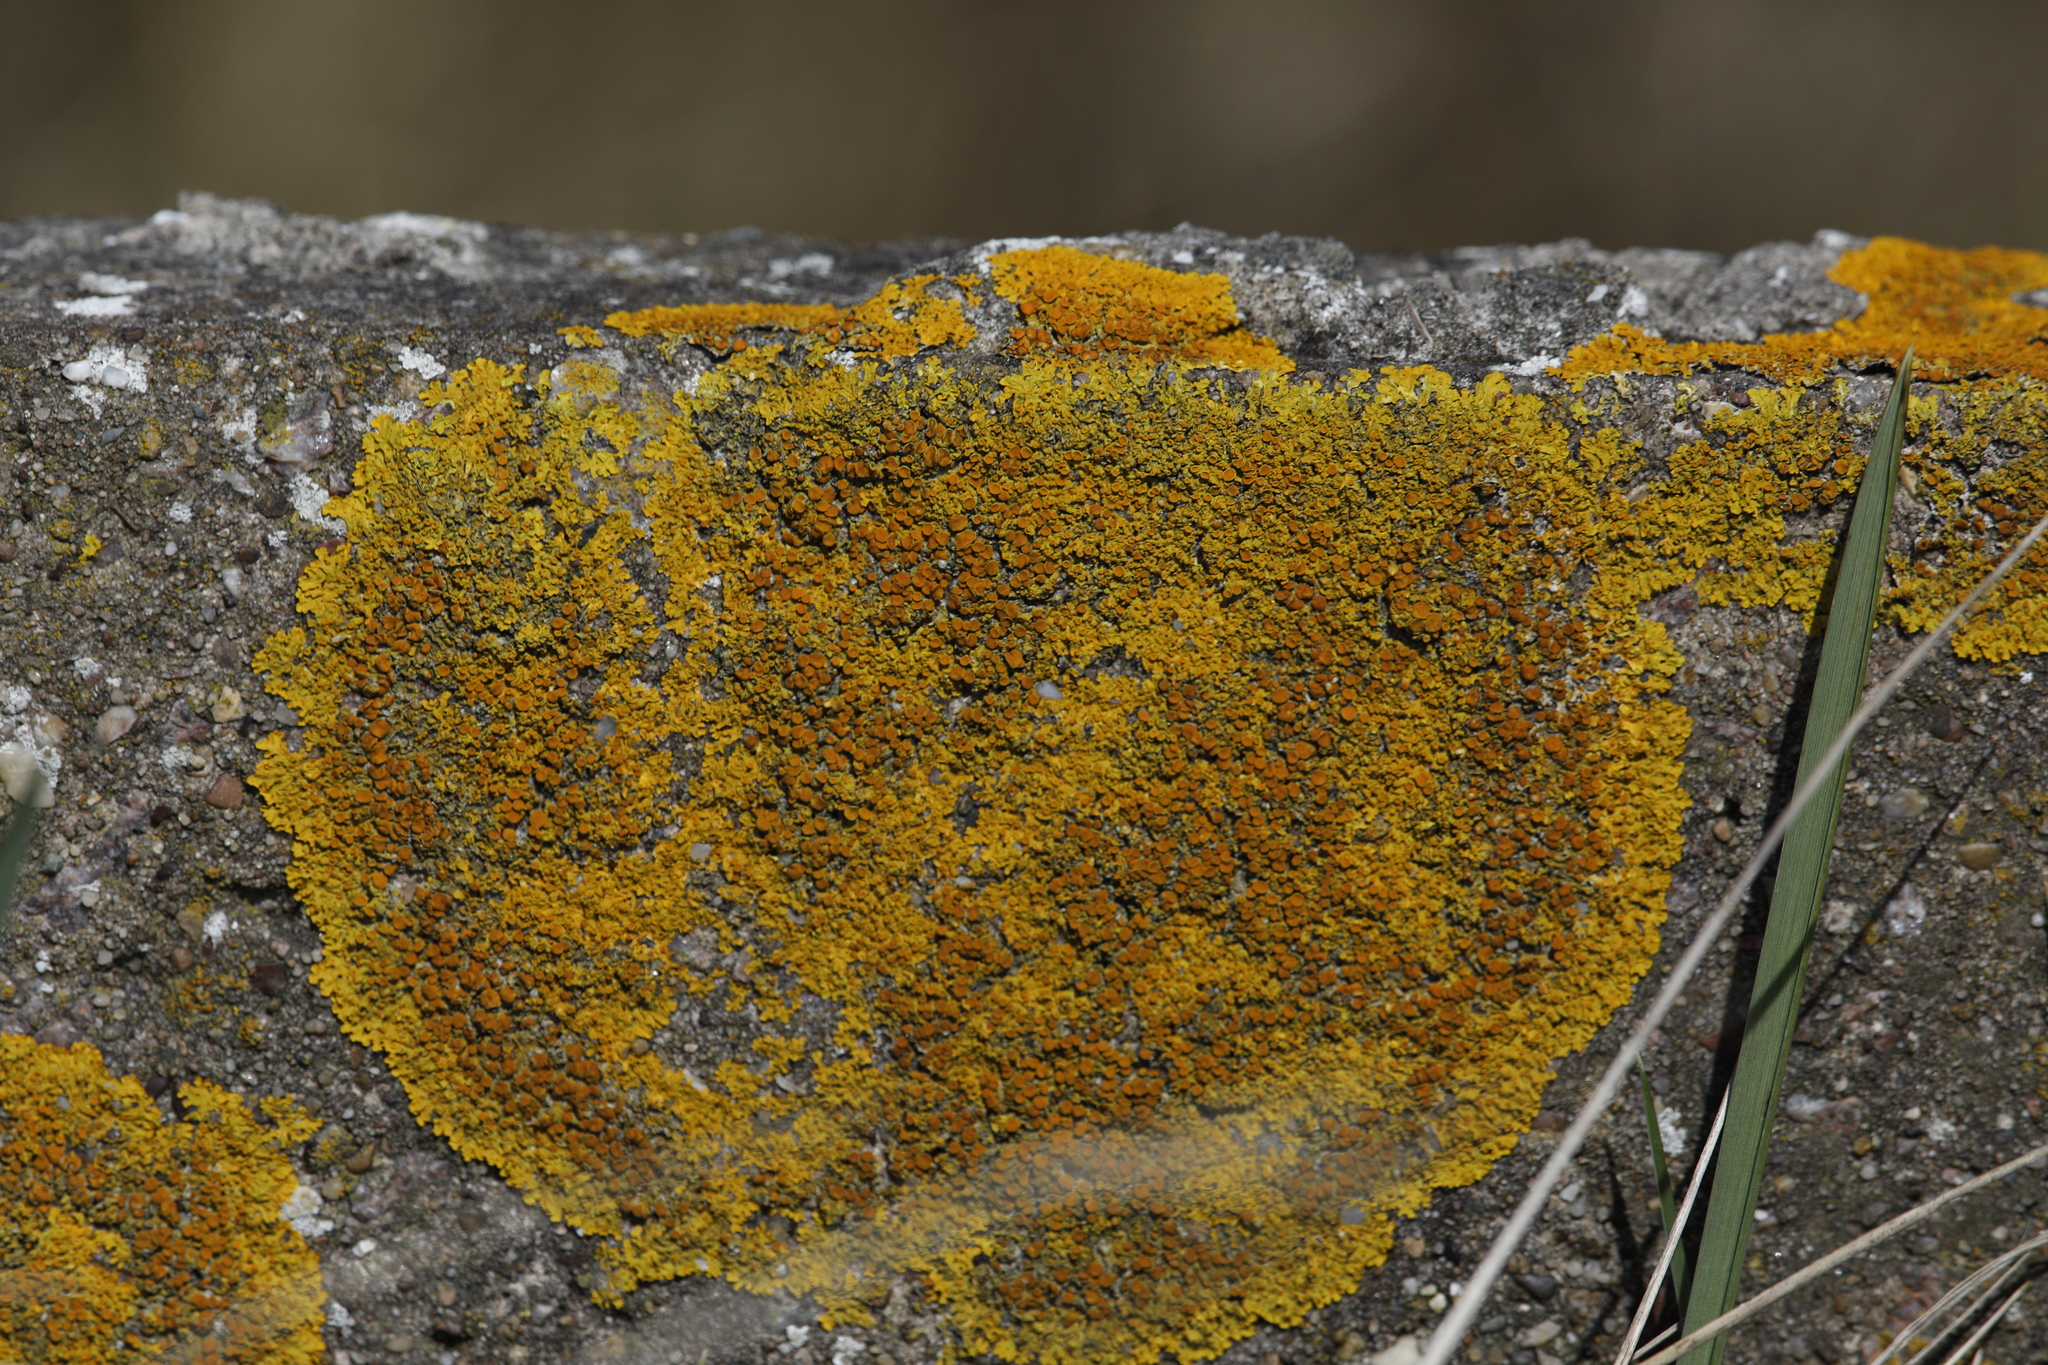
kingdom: Fungi
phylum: Ascomycota
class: Lecanoromycetes
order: Teloschistales
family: Teloschistaceae
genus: Xanthoria
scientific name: Xanthoria parietina
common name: Common orange lichen
